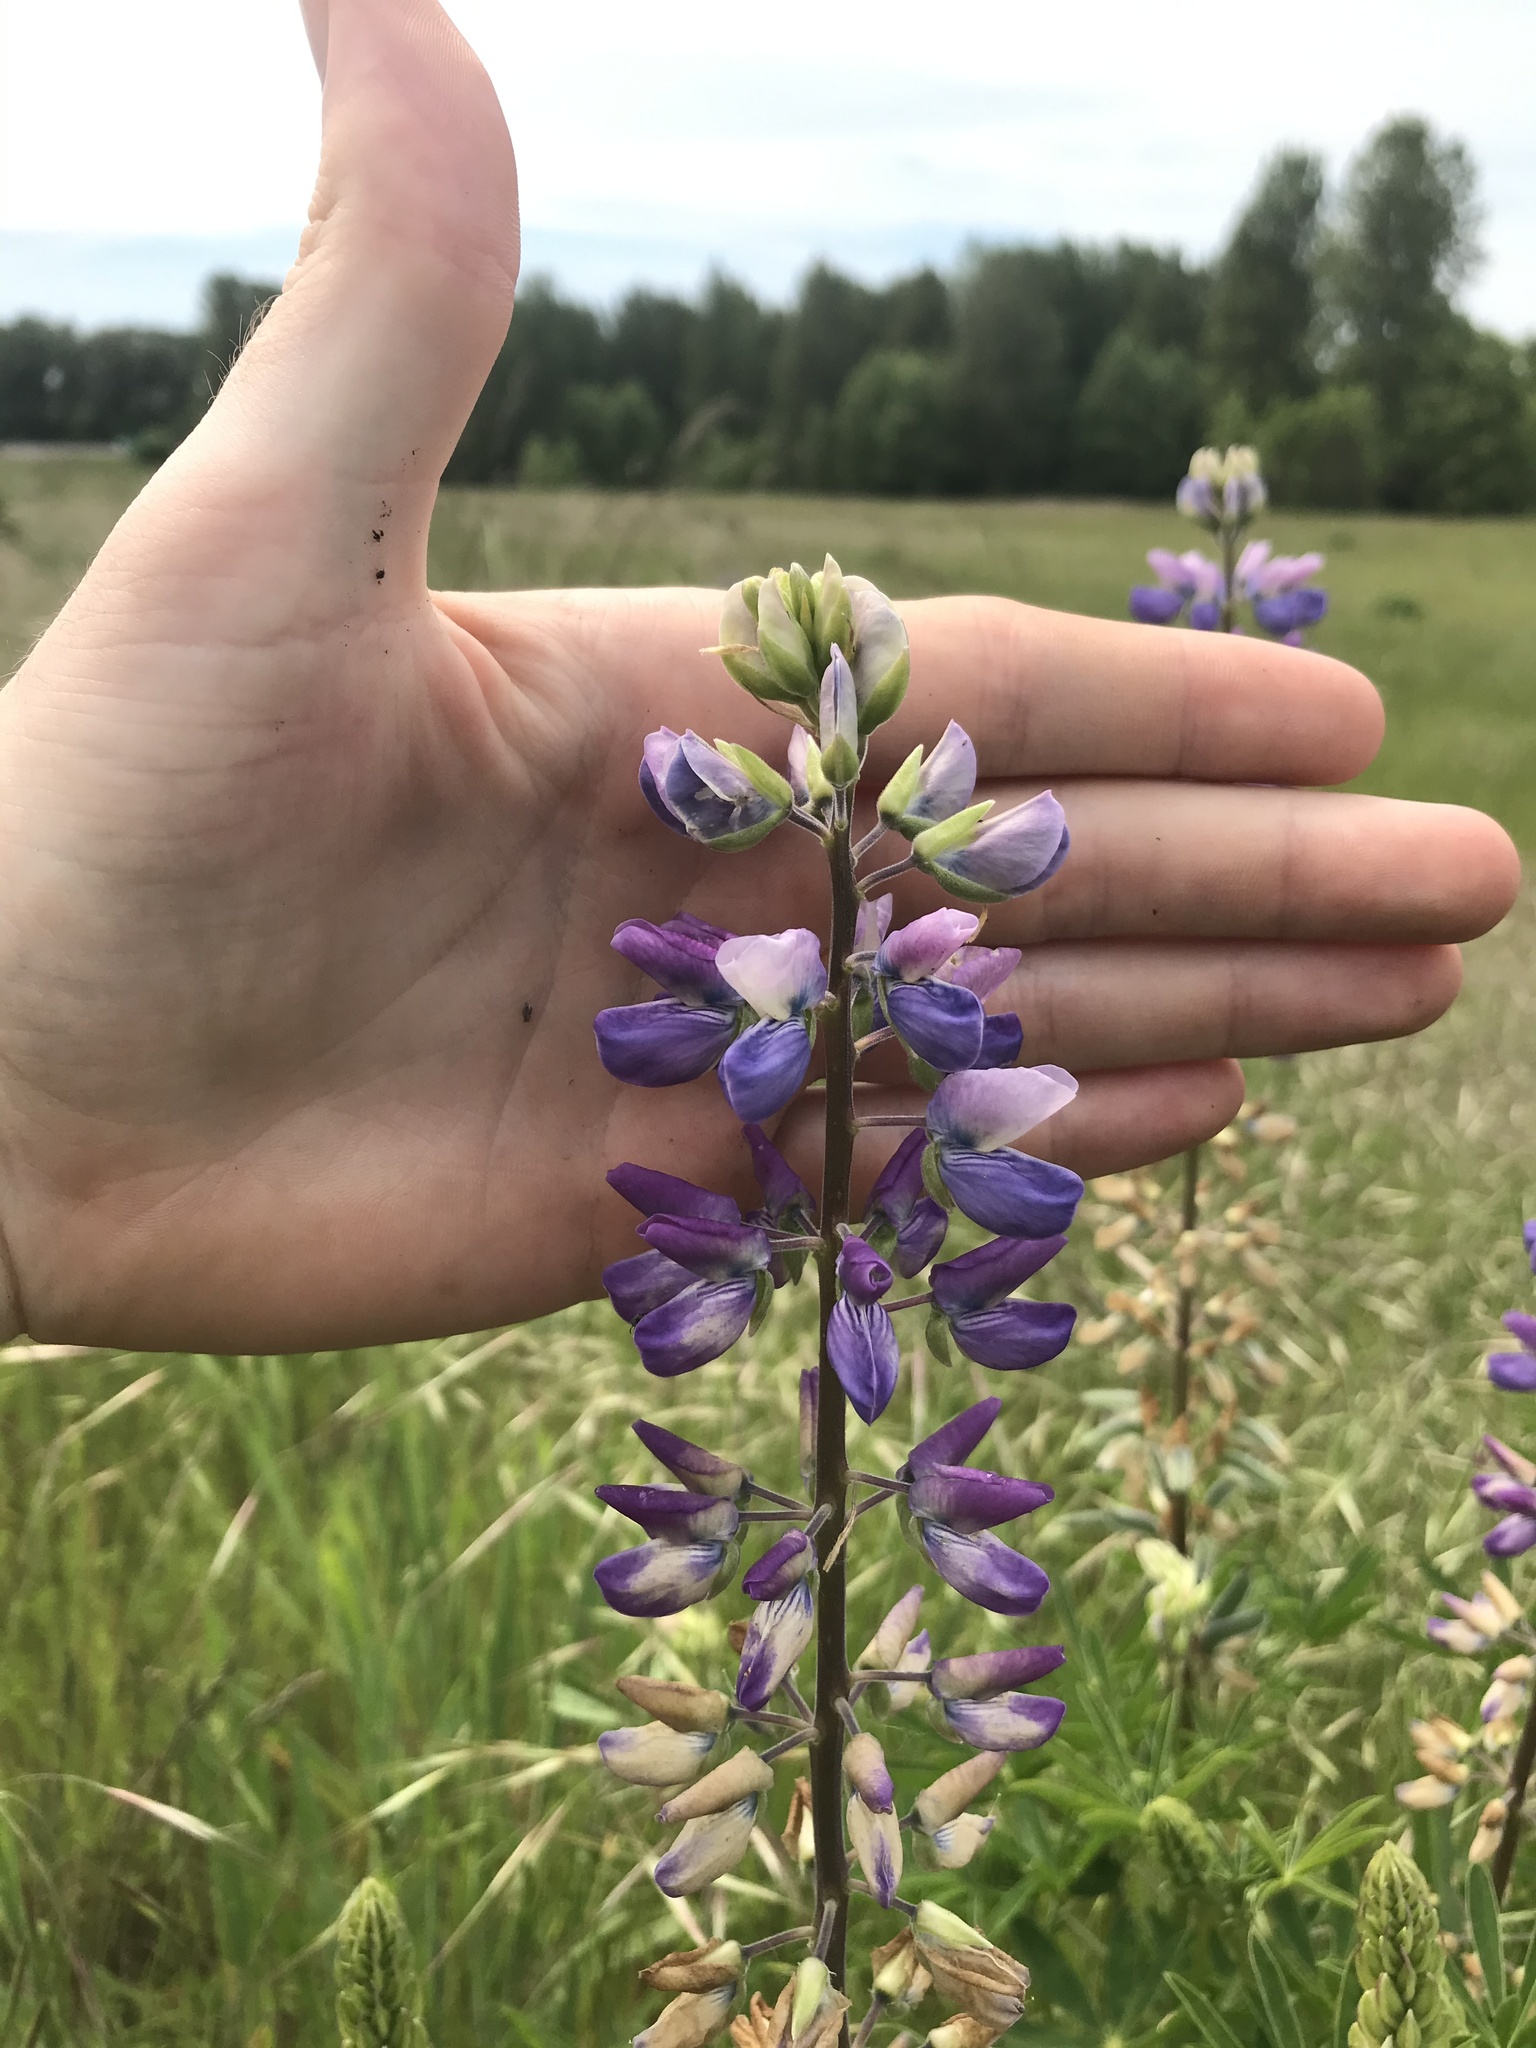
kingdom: Plantae
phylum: Tracheophyta
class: Magnoliopsida
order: Fabales
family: Fabaceae
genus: Lupinus
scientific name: Lupinus rivularis
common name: Riverbank lupine
